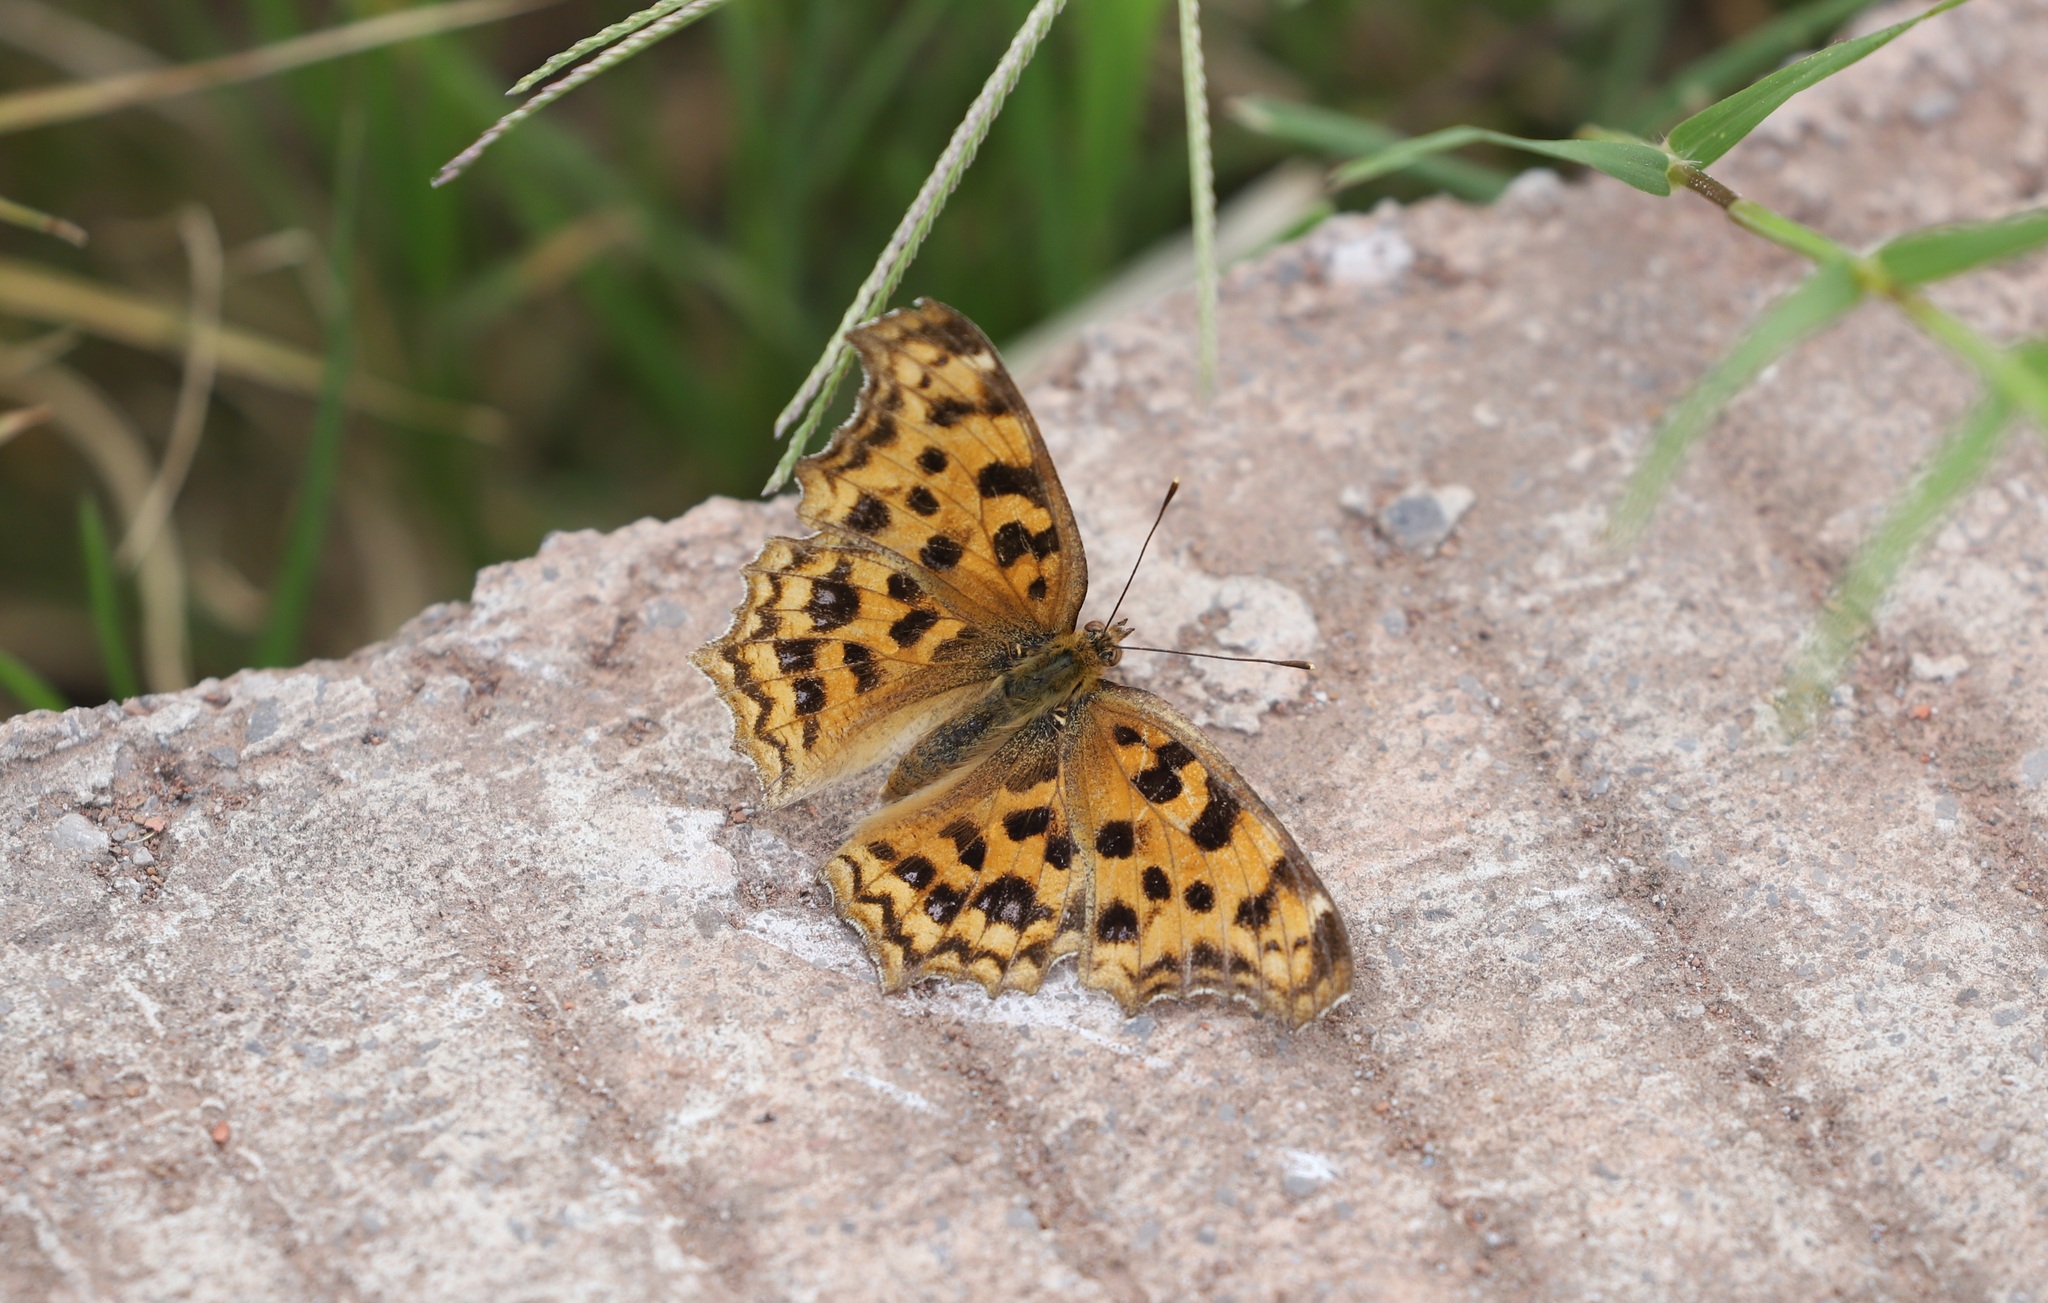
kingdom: Animalia
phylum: Arthropoda
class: Insecta
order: Lepidoptera
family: Nymphalidae
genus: Polygonia
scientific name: Polygonia c-aureum
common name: Asian comma
